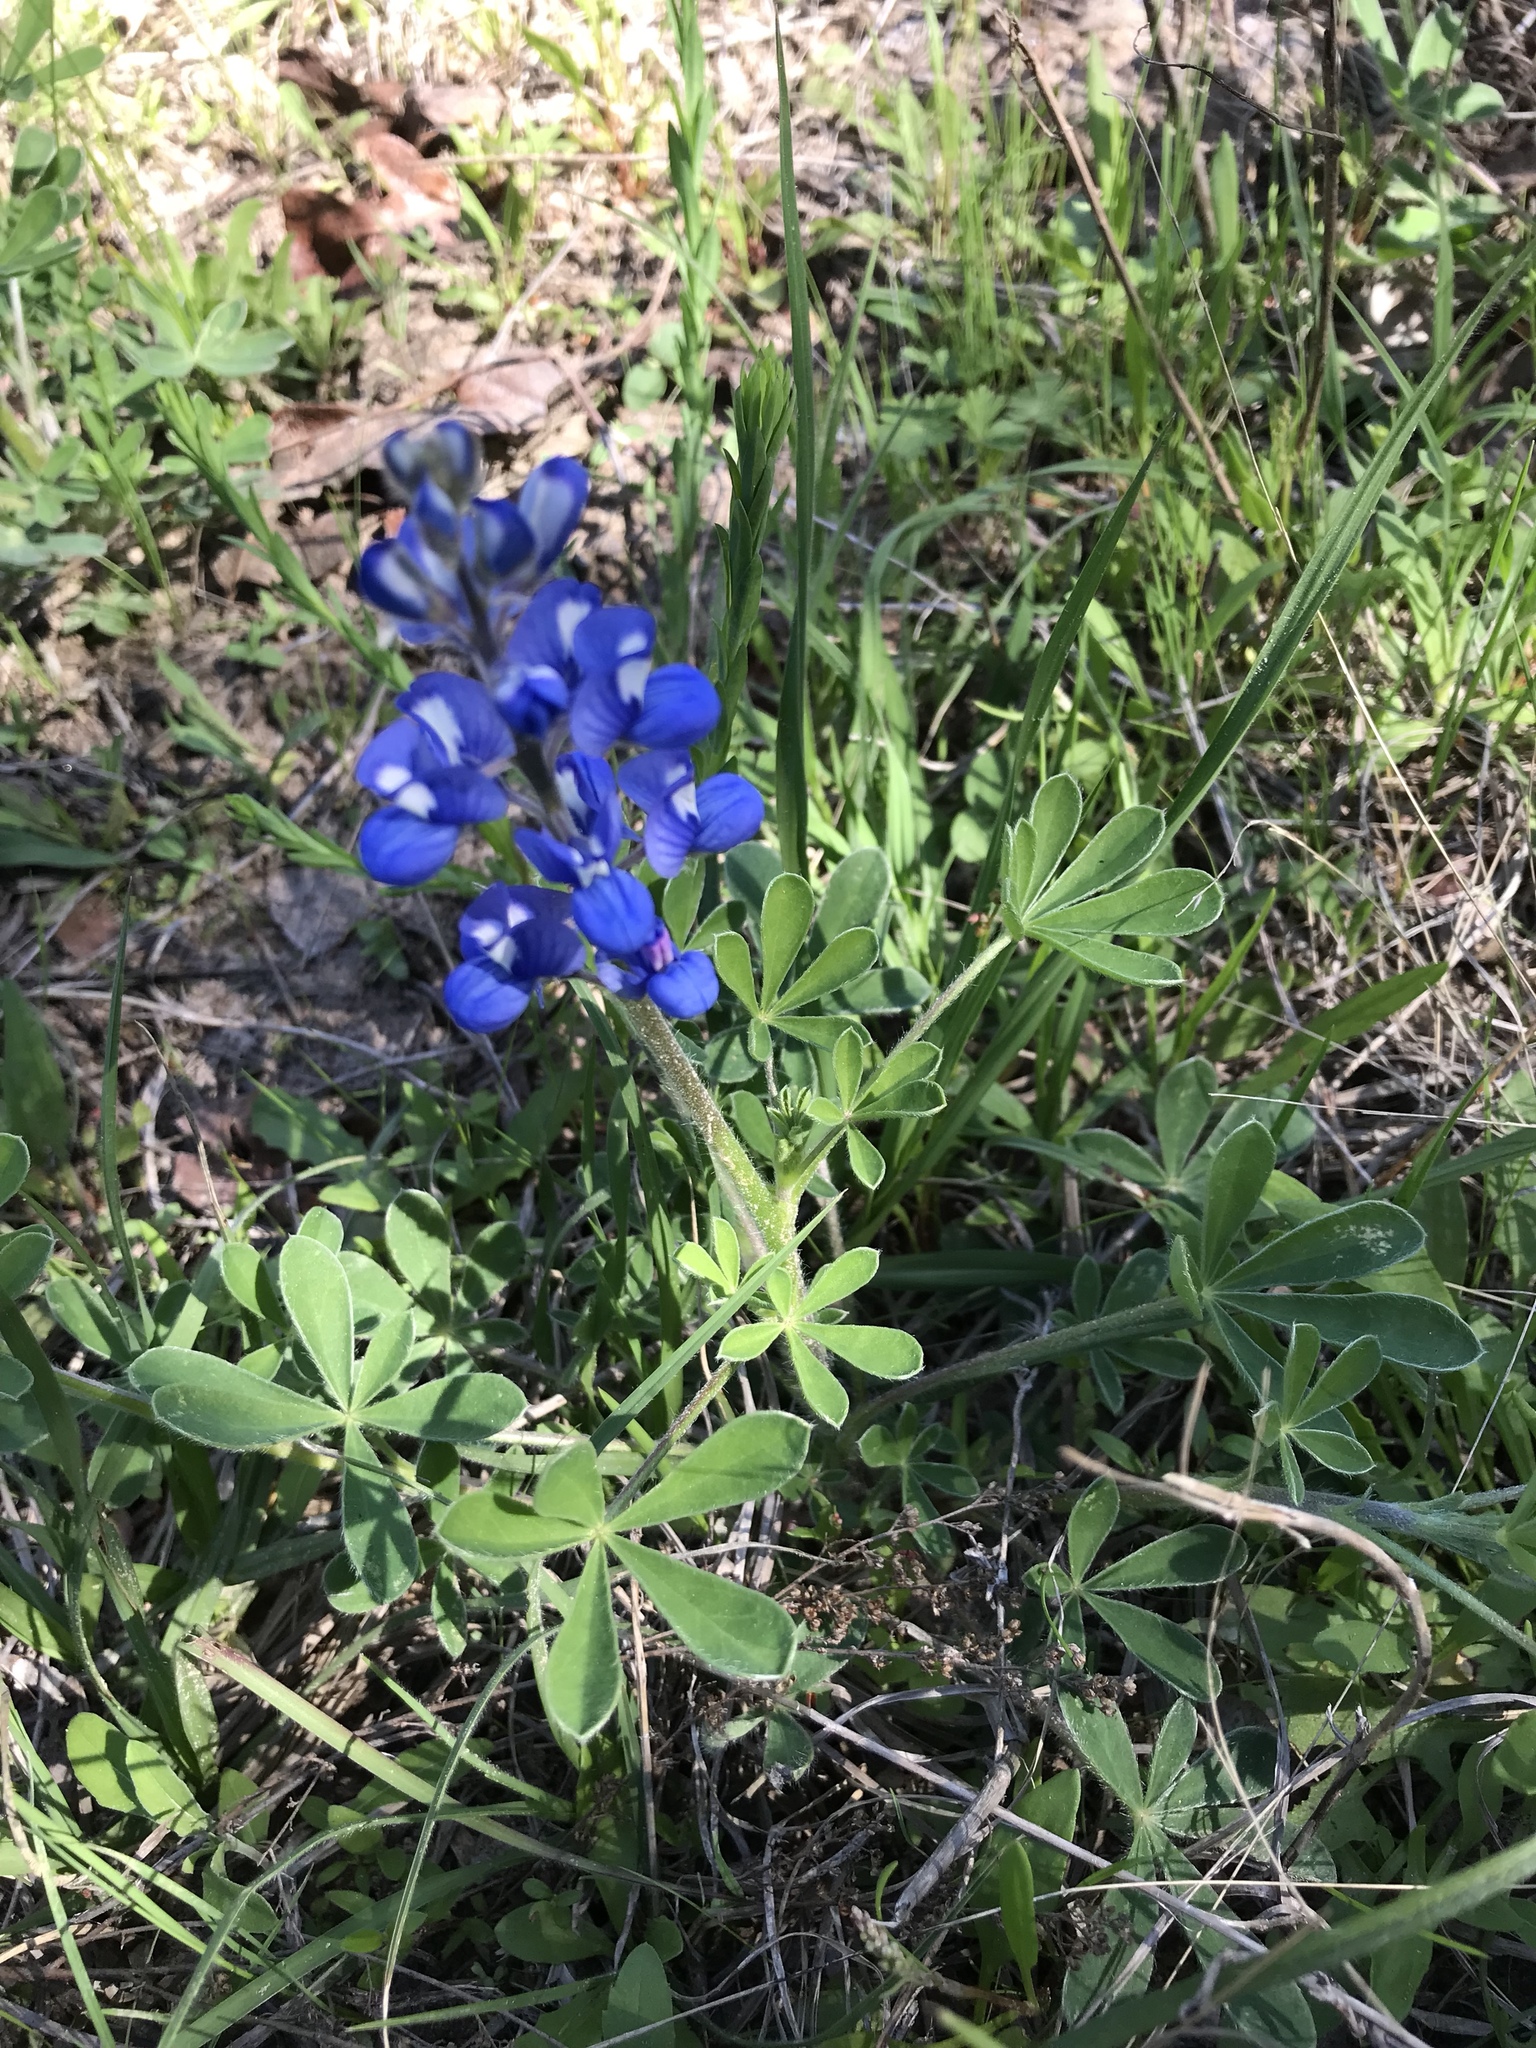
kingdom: Plantae
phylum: Tracheophyta
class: Magnoliopsida
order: Fabales
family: Fabaceae
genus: Lupinus
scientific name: Lupinus subcarnosus
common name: Texas bluebonnet
